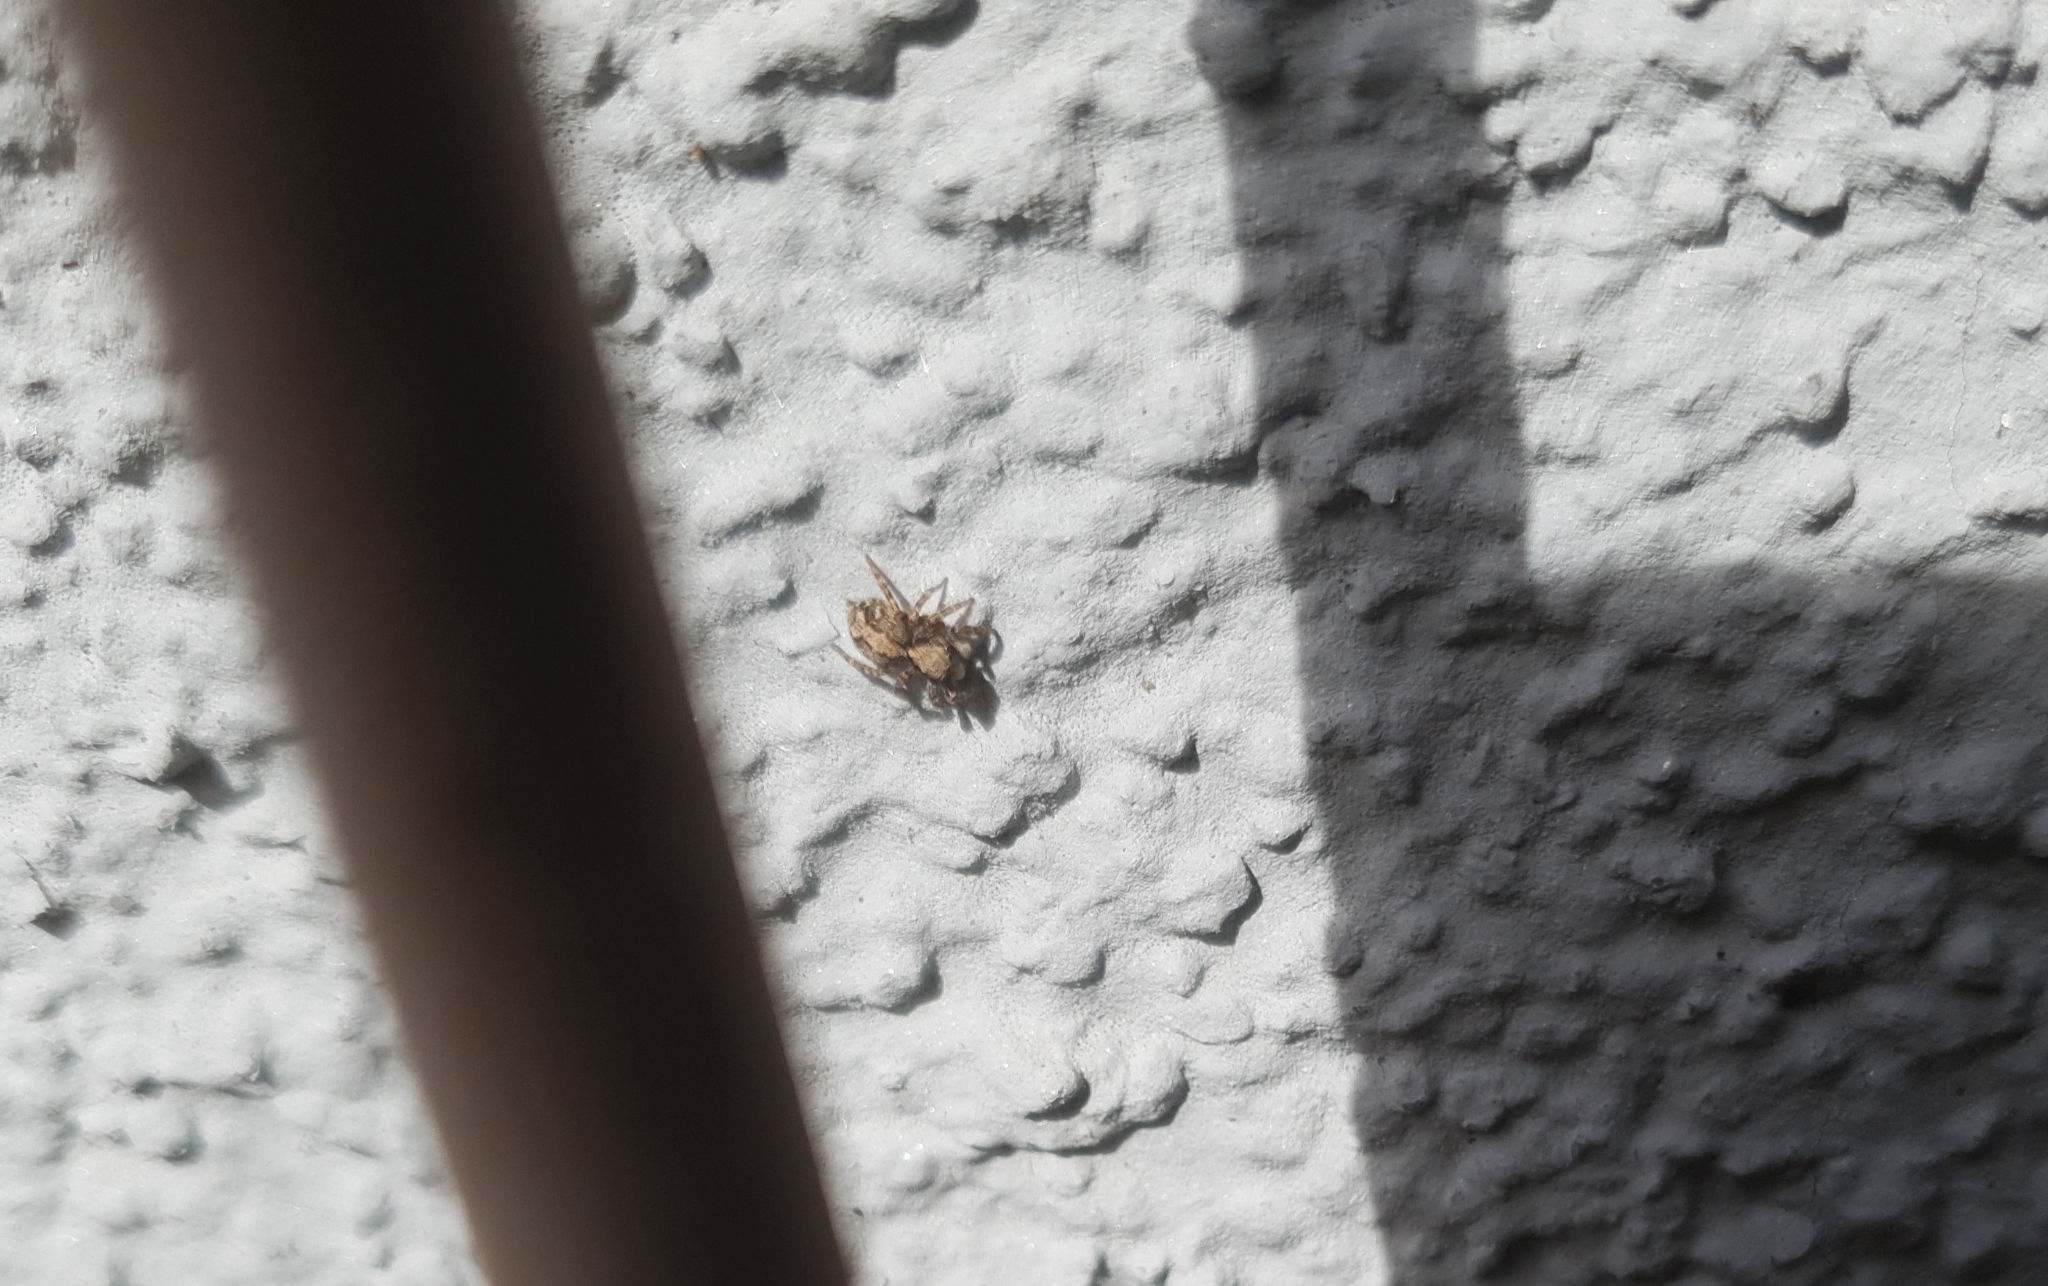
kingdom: Animalia
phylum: Arthropoda
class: Arachnida
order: Araneae
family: Salticidae
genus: Pseudeuophrys
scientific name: Pseudeuophrys lanigera
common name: Jumping spider
